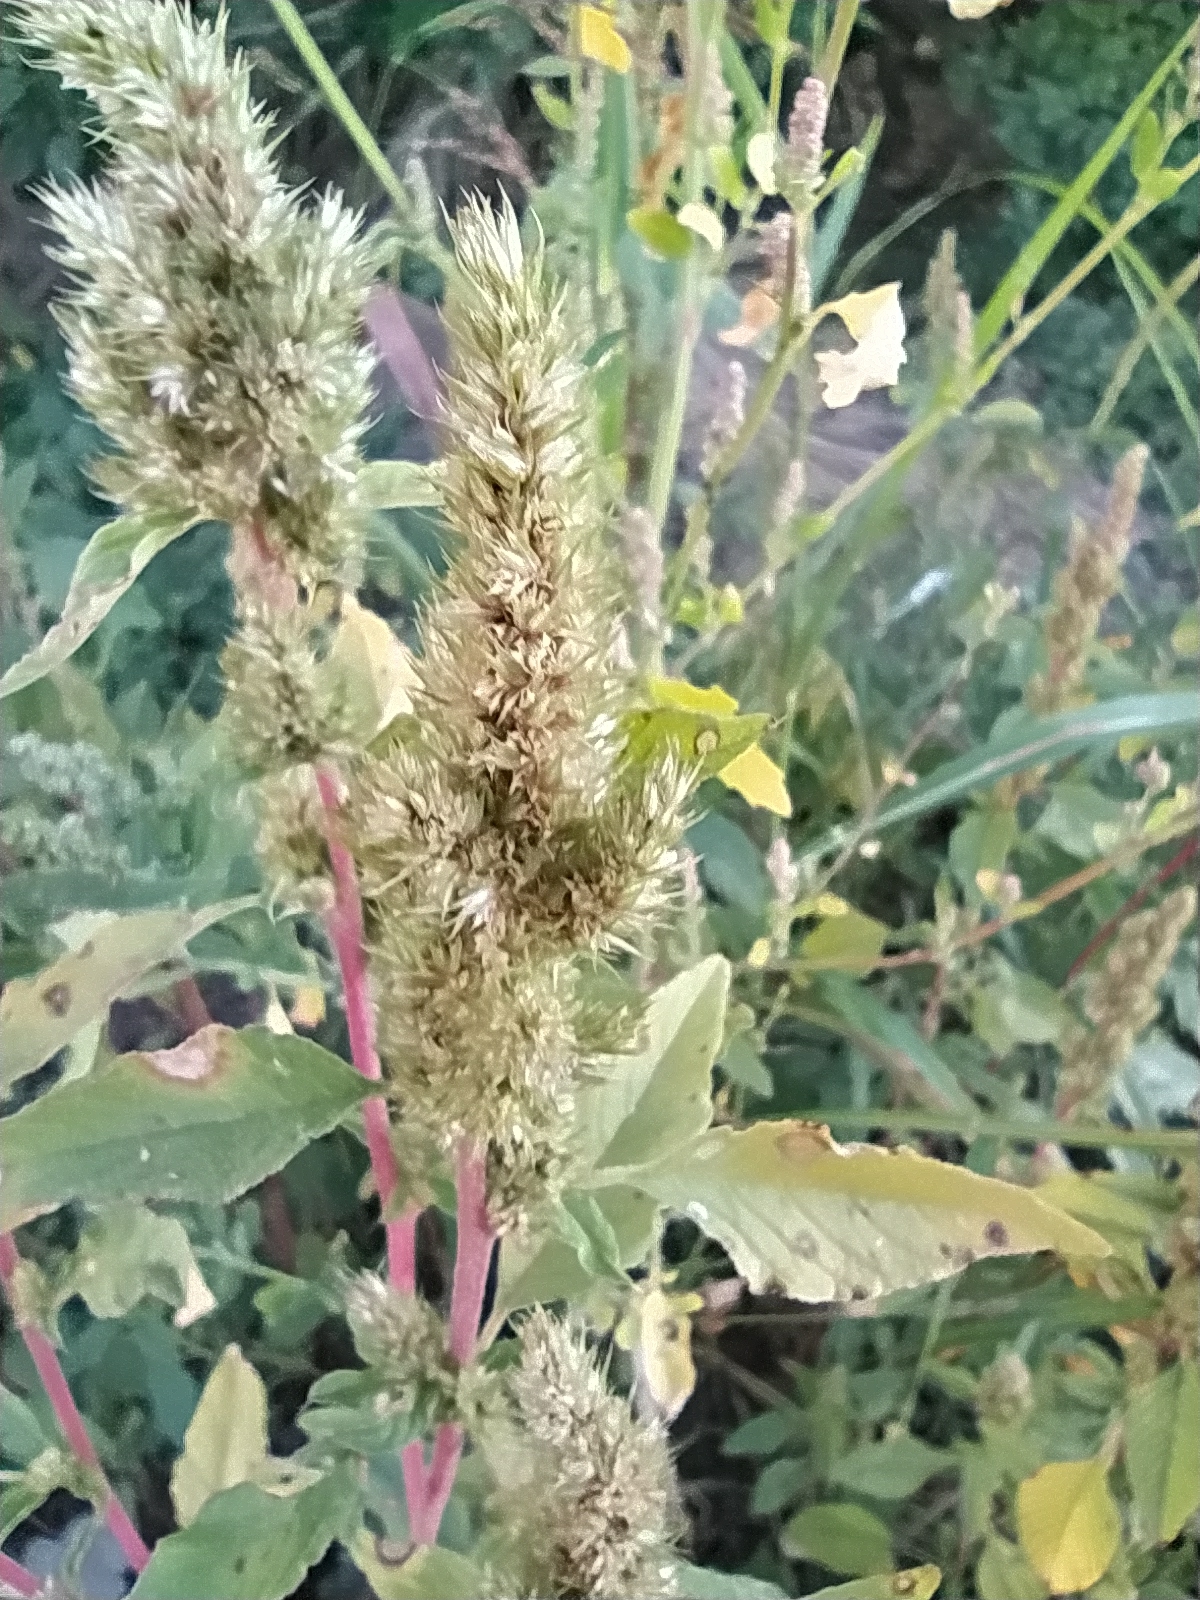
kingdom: Plantae
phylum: Tracheophyta
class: Magnoliopsida
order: Caryophyllales
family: Amaranthaceae
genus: Amaranthus
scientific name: Amaranthus retroflexus
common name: Redroot amaranth
